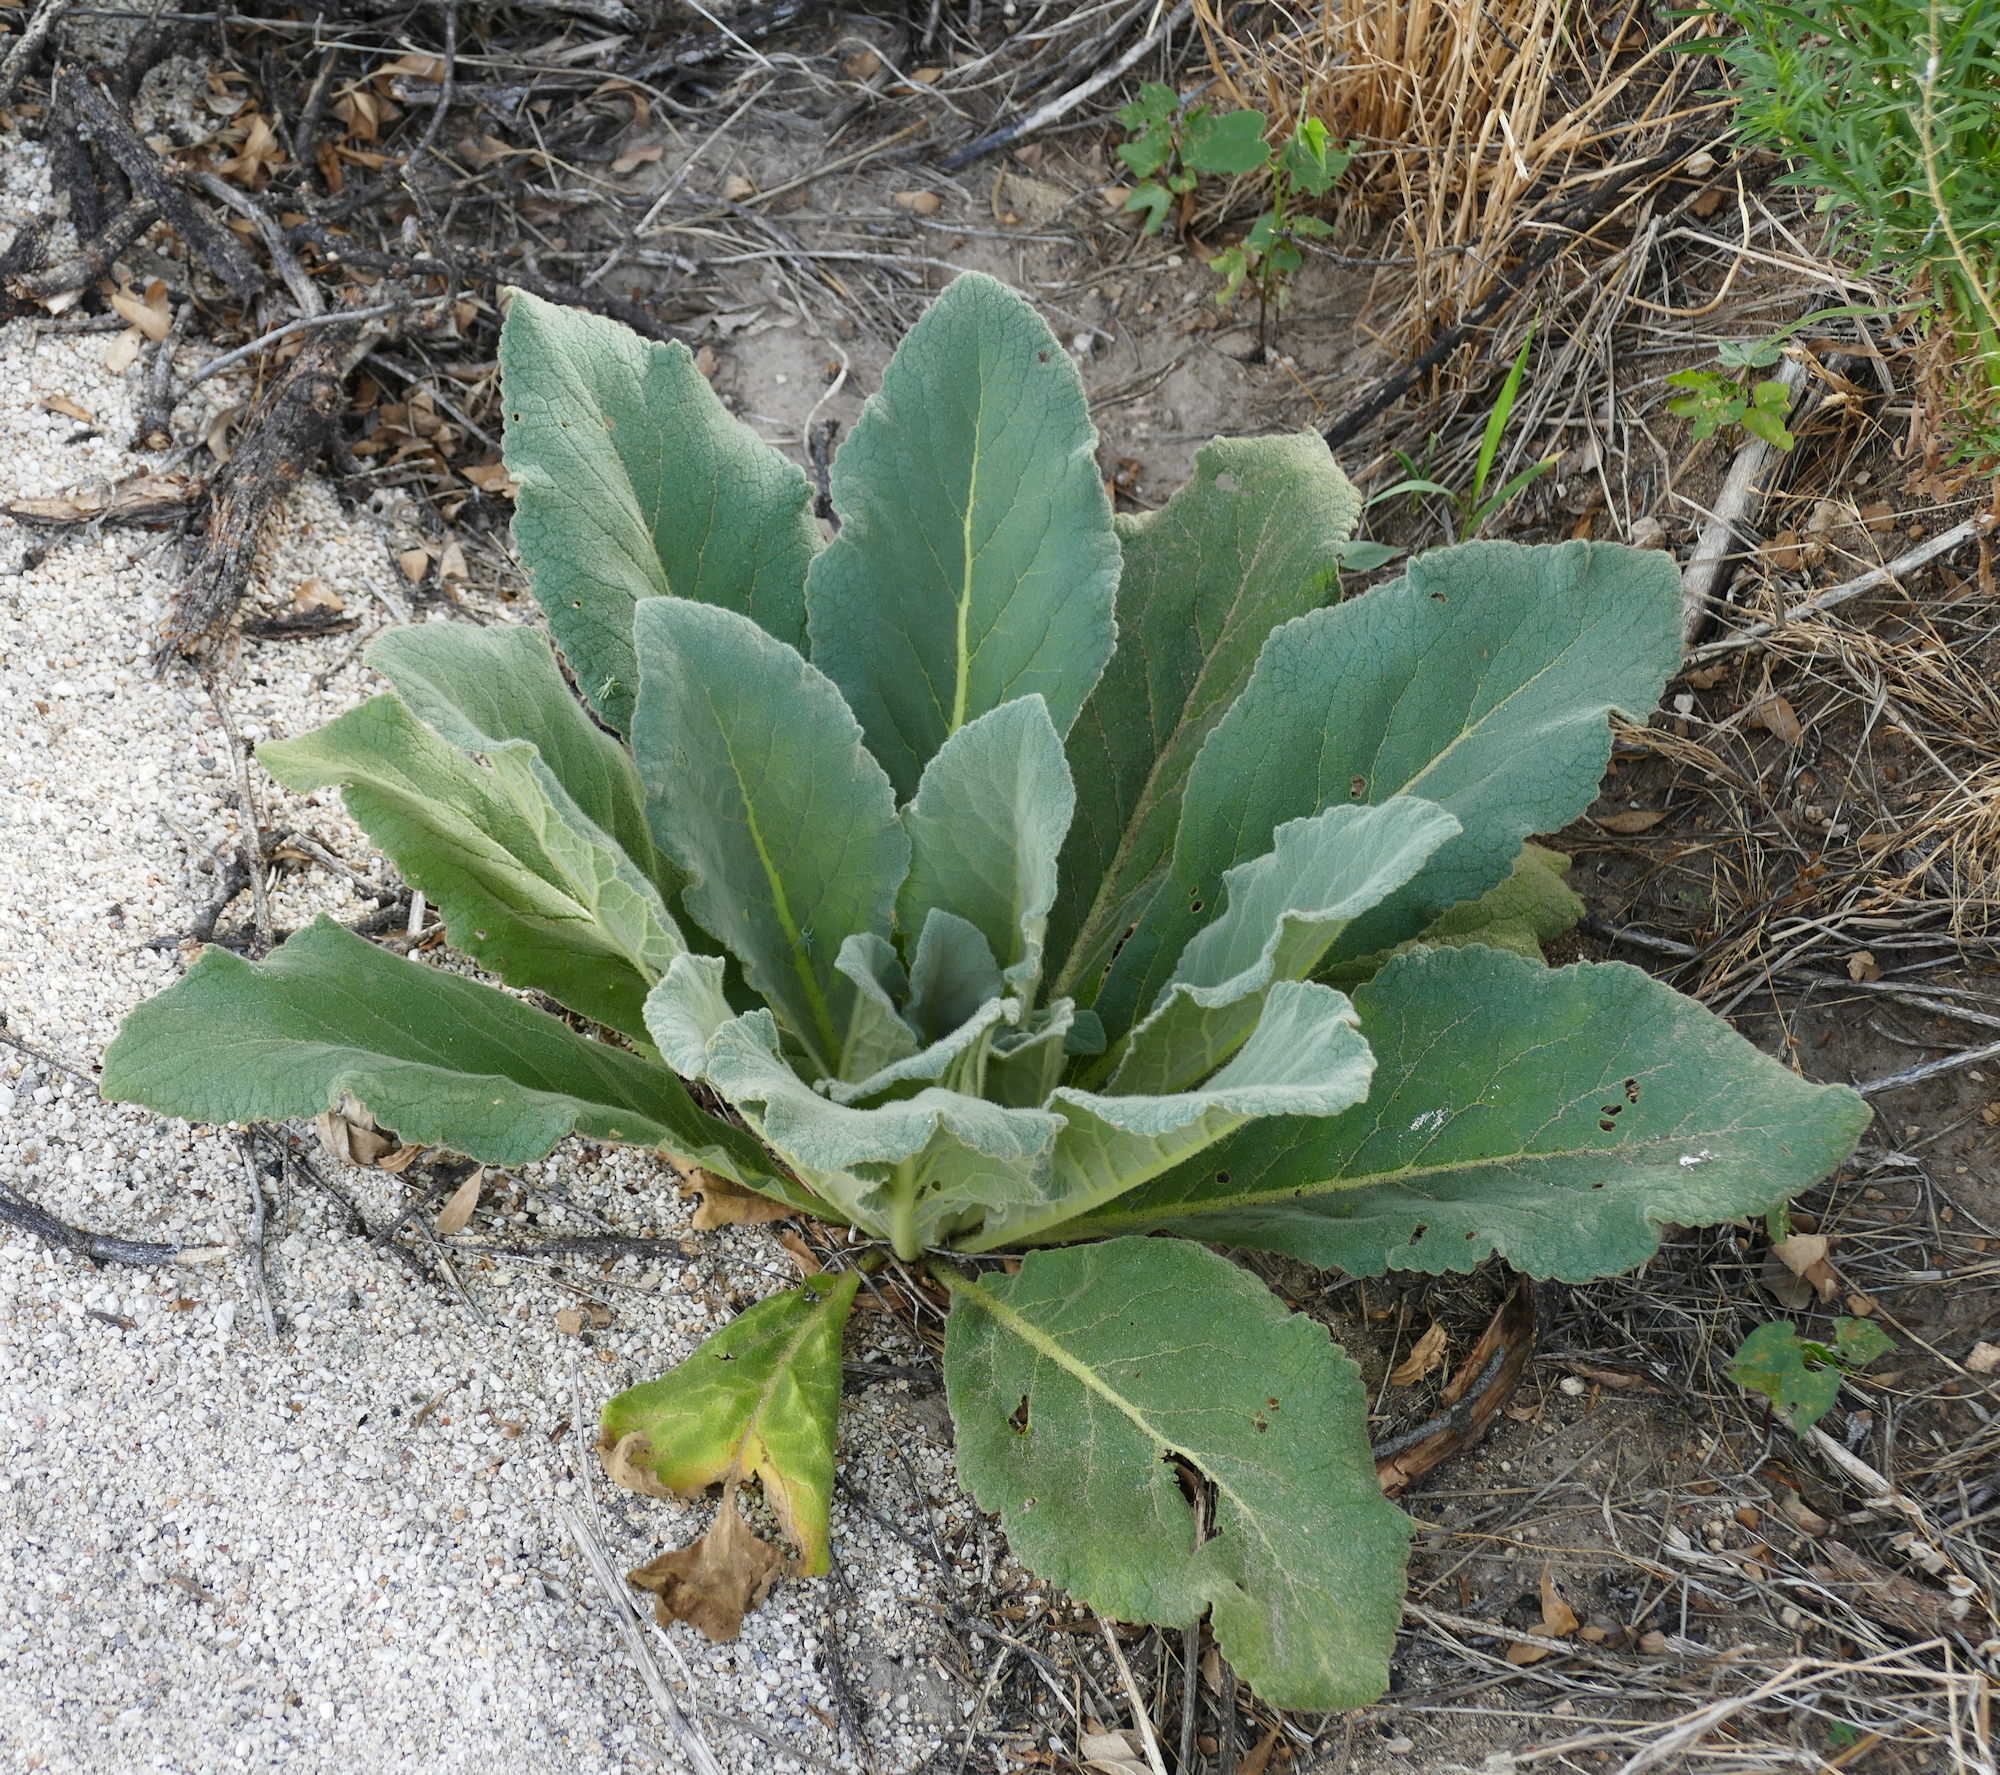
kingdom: Plantae
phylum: Tracheophyta
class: Magnoliopsida
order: Lamiales
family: Scrophulariaceae
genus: Verbascum
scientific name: Verbascum thapsus
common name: Common mullein
